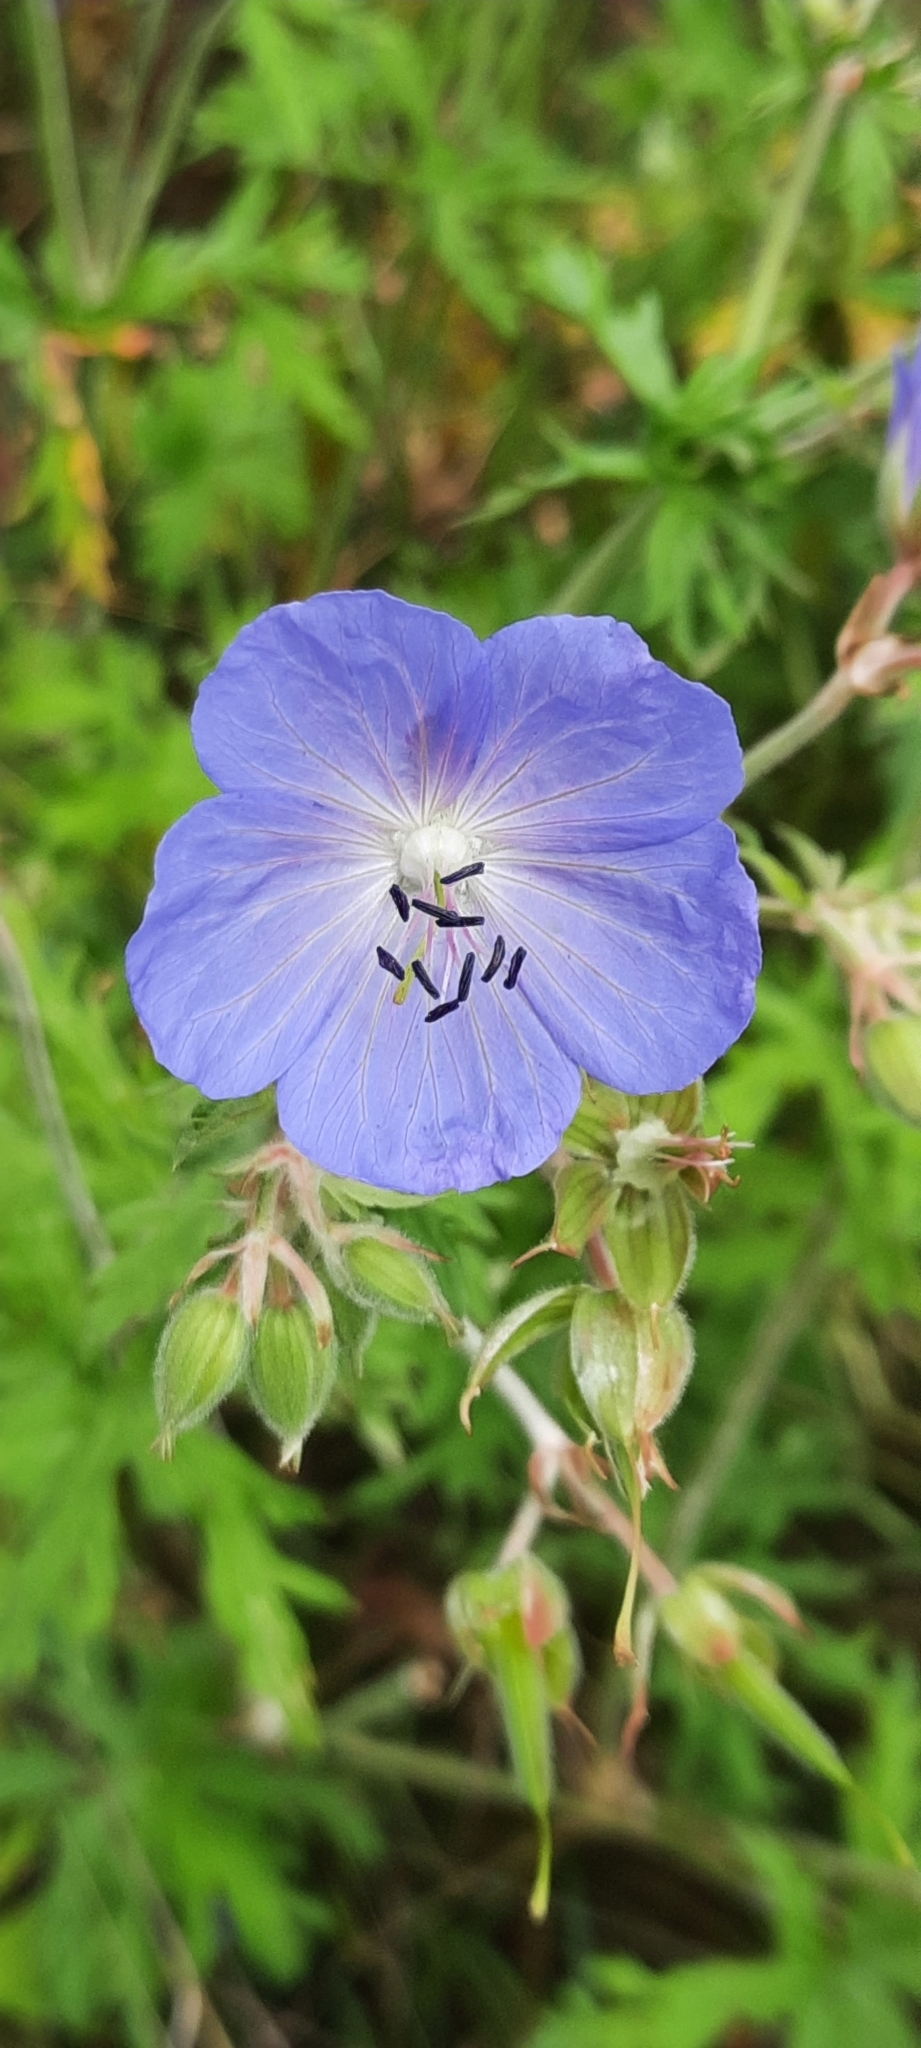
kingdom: Plantae
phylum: Tracheophyta
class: Magnoliopsida
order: Geraniales
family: Geraniaceae
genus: Geranium
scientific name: Geranium pratense
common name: Meadow crane's-bill
